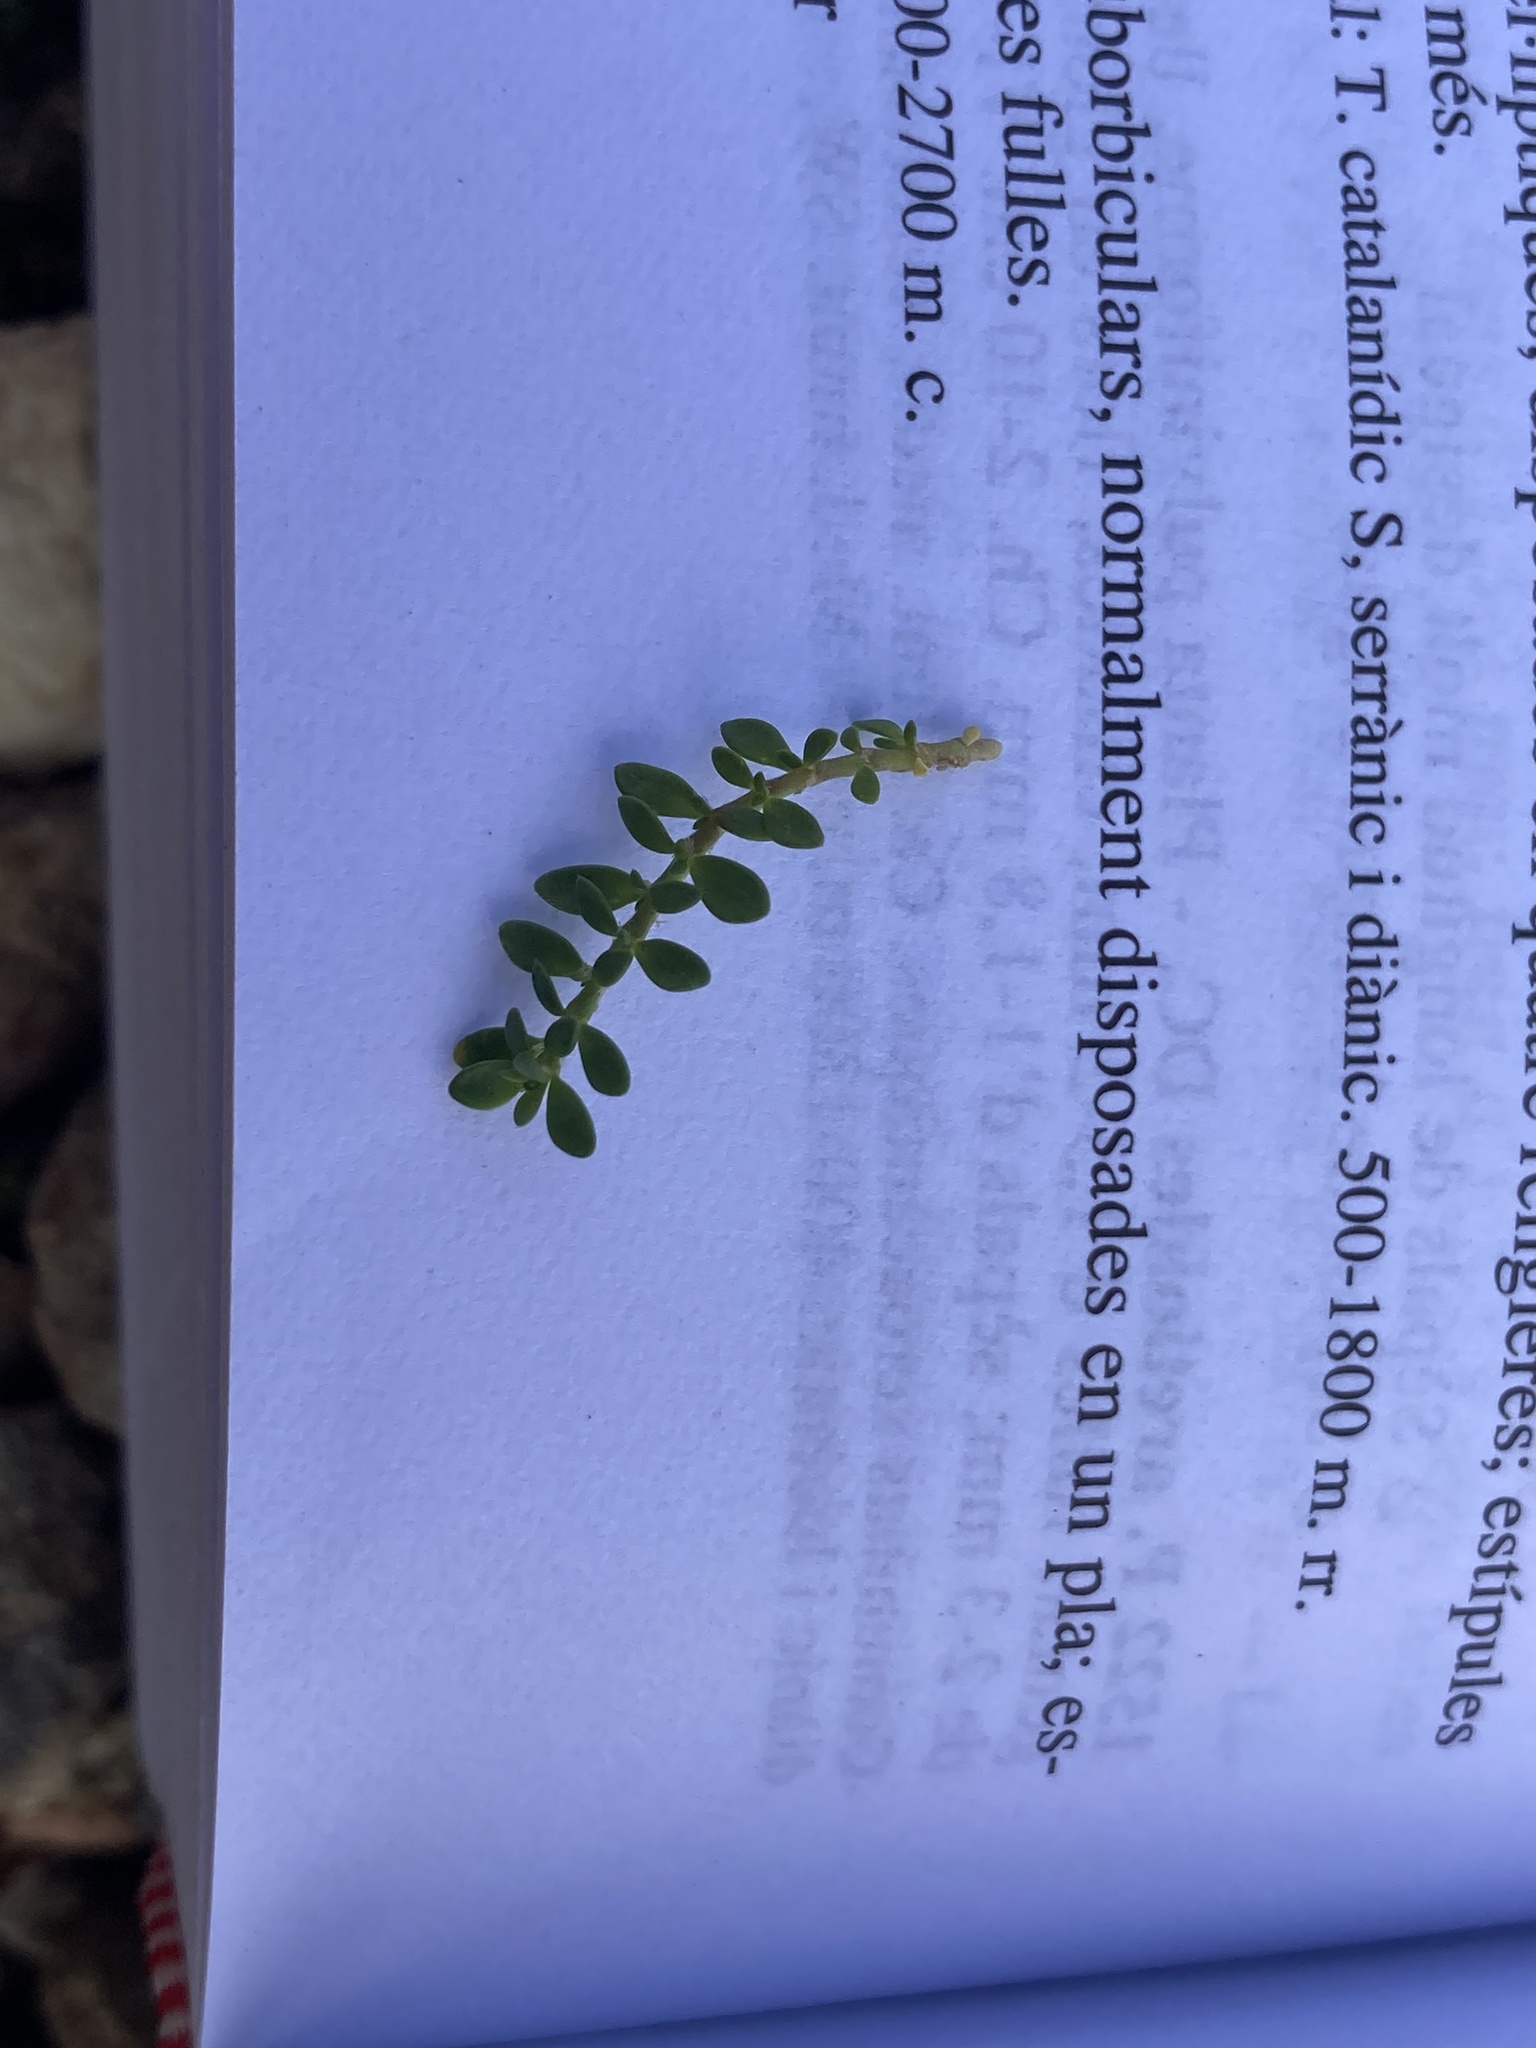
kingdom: Plantae
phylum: Tracheophyta
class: Magnoliopsida
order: Caryophyllales
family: Caryophyllaceae
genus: Herniaria
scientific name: Herniaria glabra
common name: Smooth rupturewort
